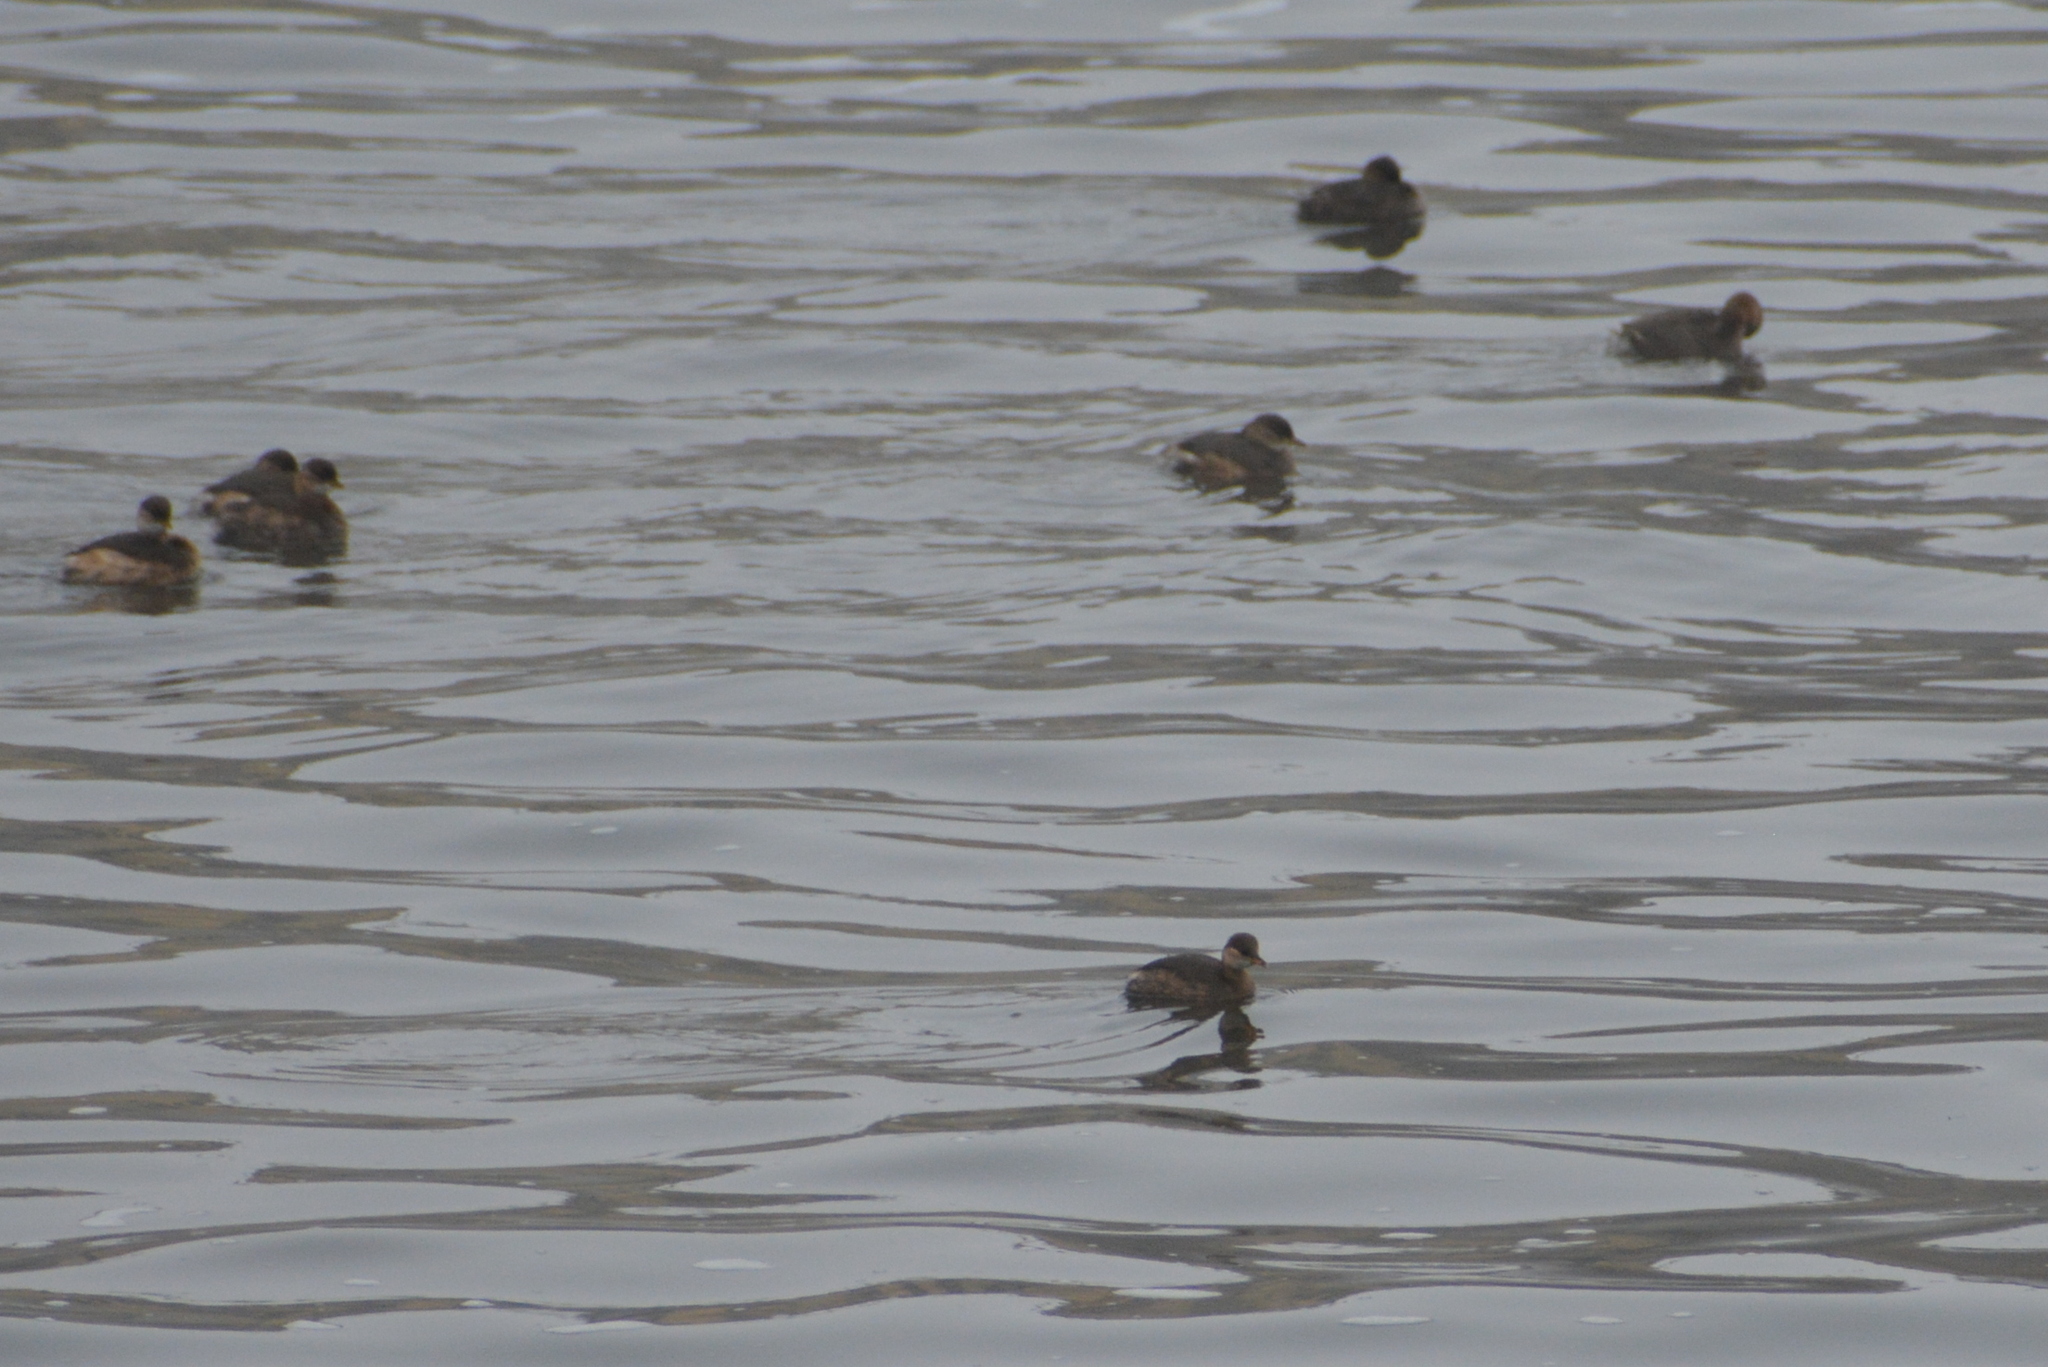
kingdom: Animalia
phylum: Chordata
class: Aves
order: Podicipediformes
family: Podicipedidae
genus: Tachybaptus
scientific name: Tachybaptus ruficollis
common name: Little grebe
